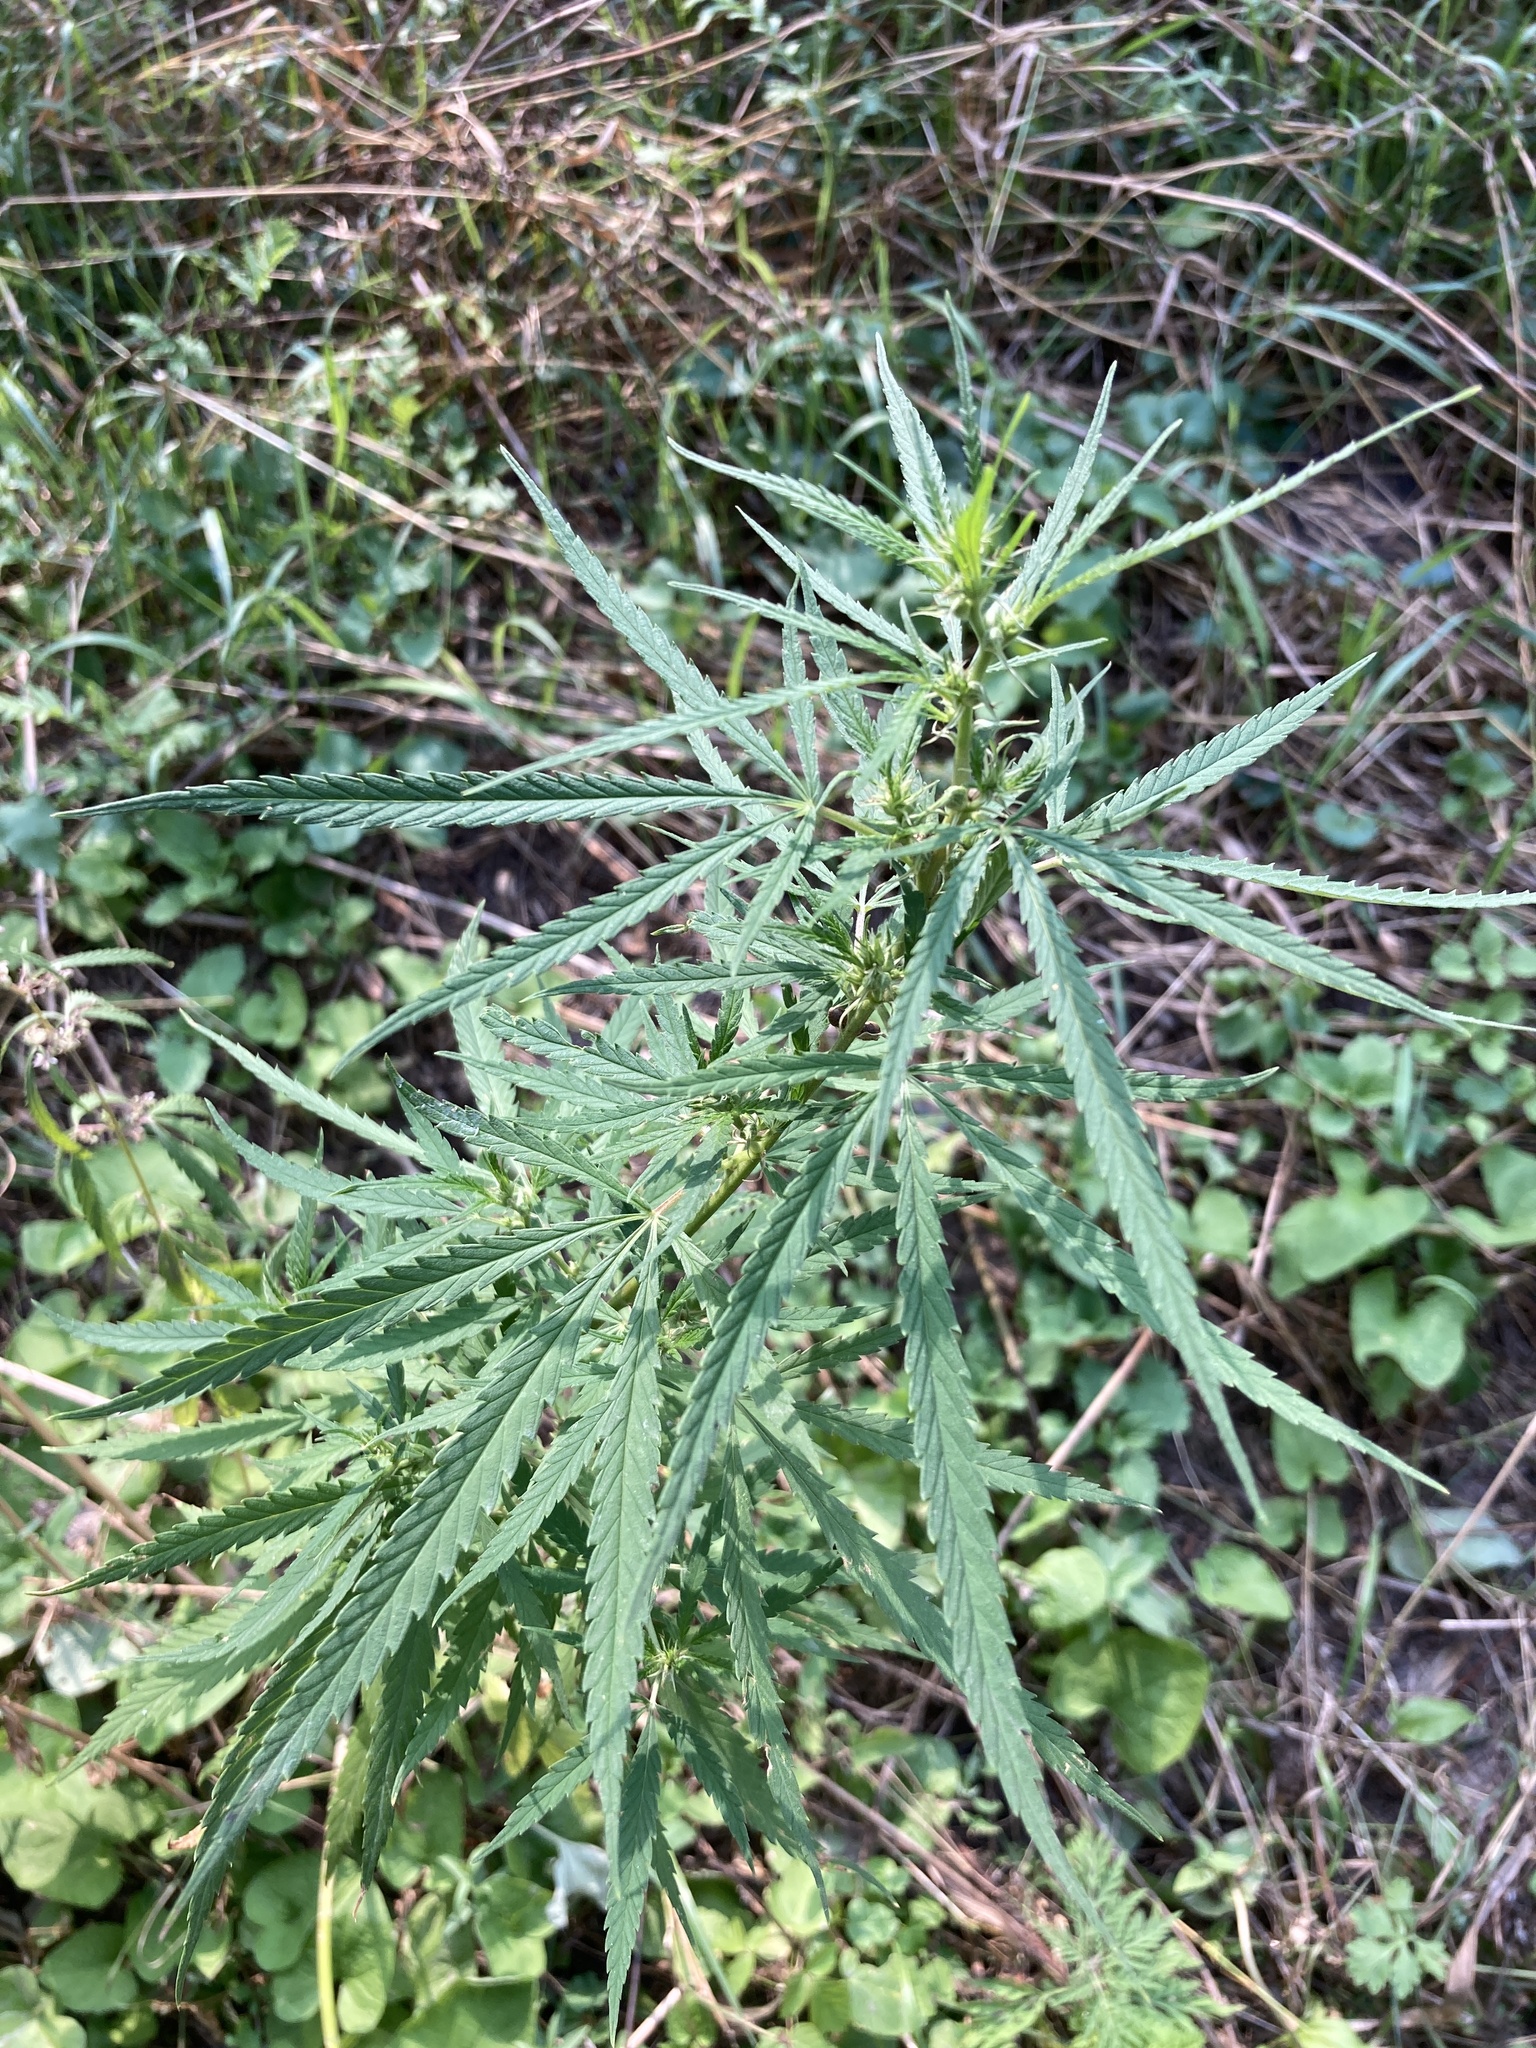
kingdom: Plantae
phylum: Tracheophyta
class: Magnoliopsida
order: Rosales
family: Cannabaceae
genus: Cannabis
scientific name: Cannabis sativa
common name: Hemp
